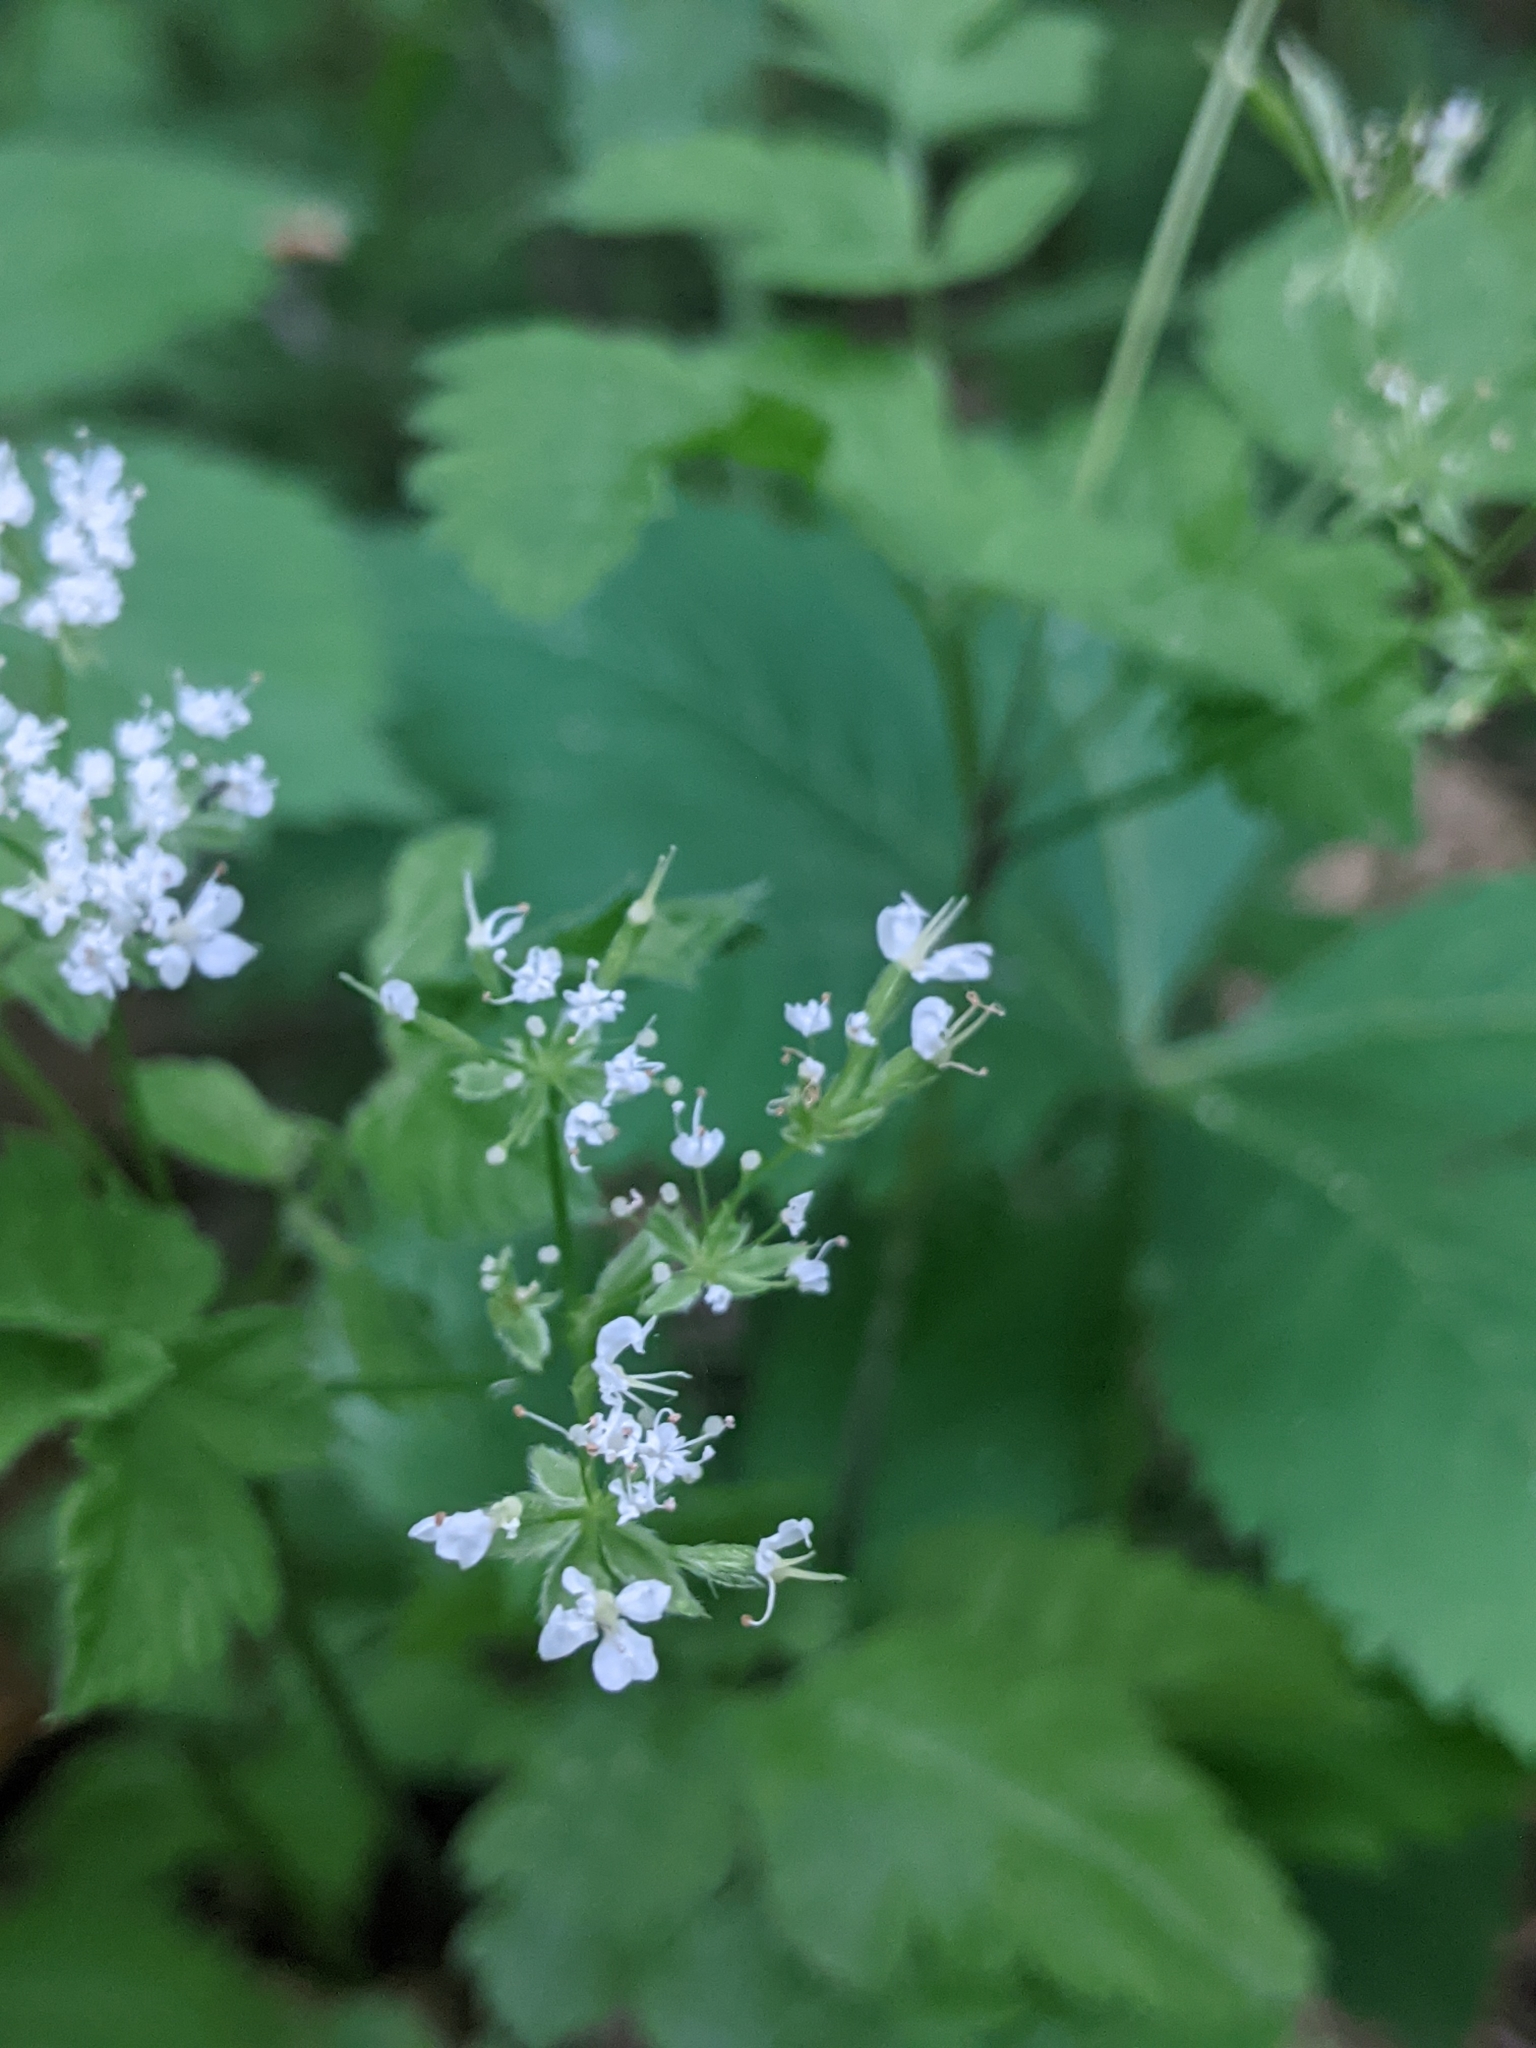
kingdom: Plantae
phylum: Tracheophyta
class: Magnoliopsida
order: Apiales
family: Apiaceae
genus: Osmorhiza
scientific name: Osmorhiza longistylis
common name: Smooth sweet cicely
